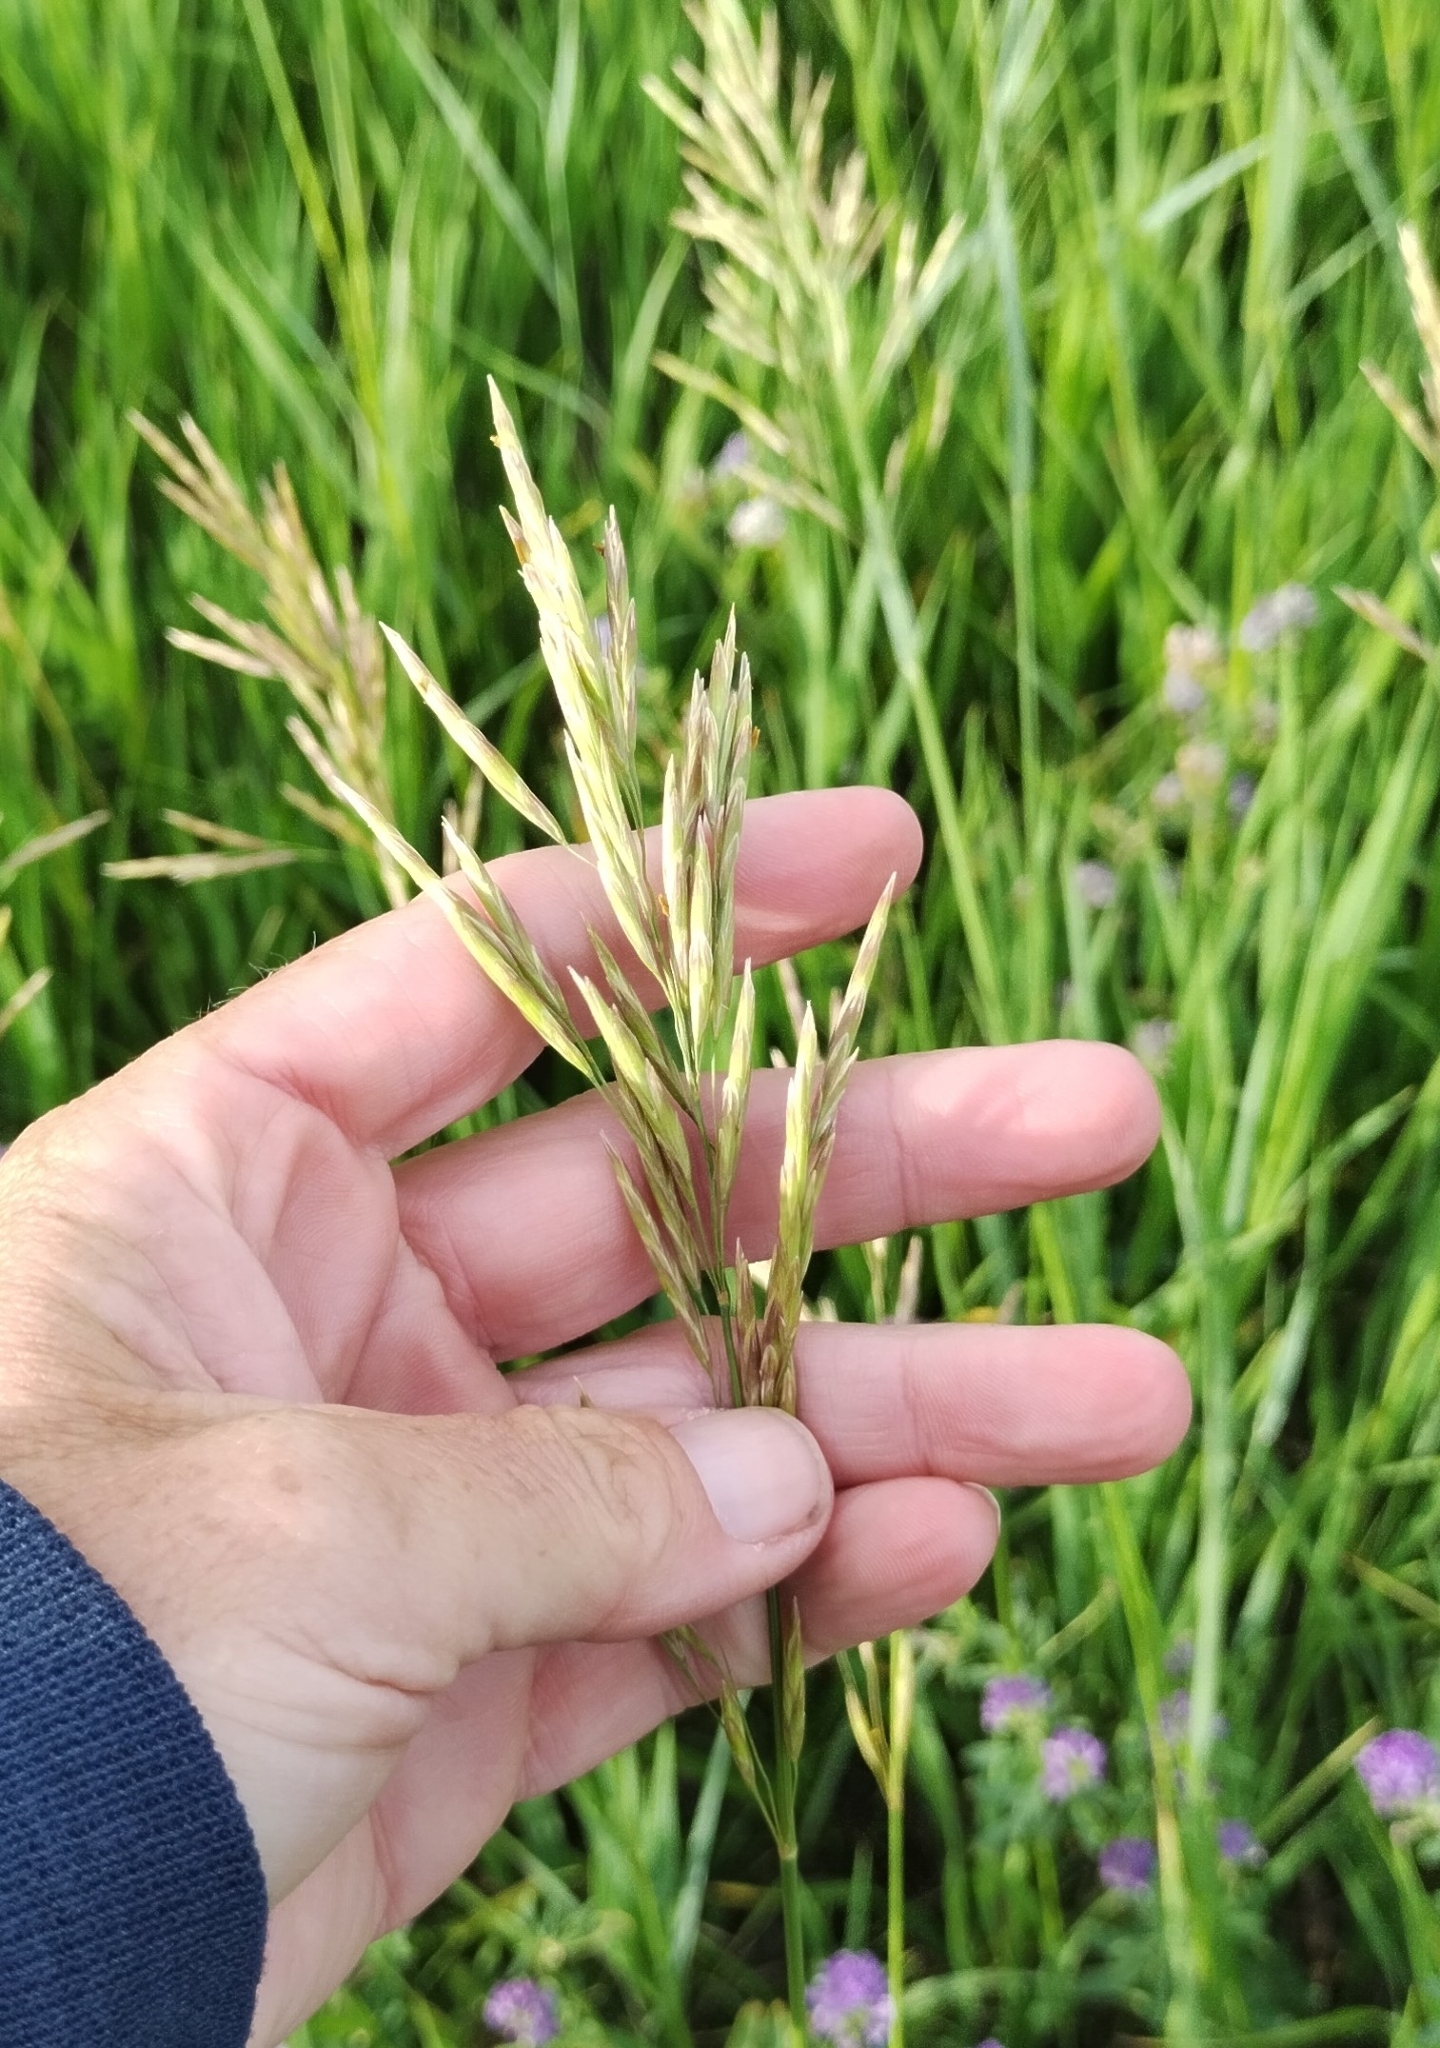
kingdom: Plantae
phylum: Tracheophyta
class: Liliopsida
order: Poales
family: Poaceae
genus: Bromus
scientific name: Bromus inermis
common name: Smooth brome
